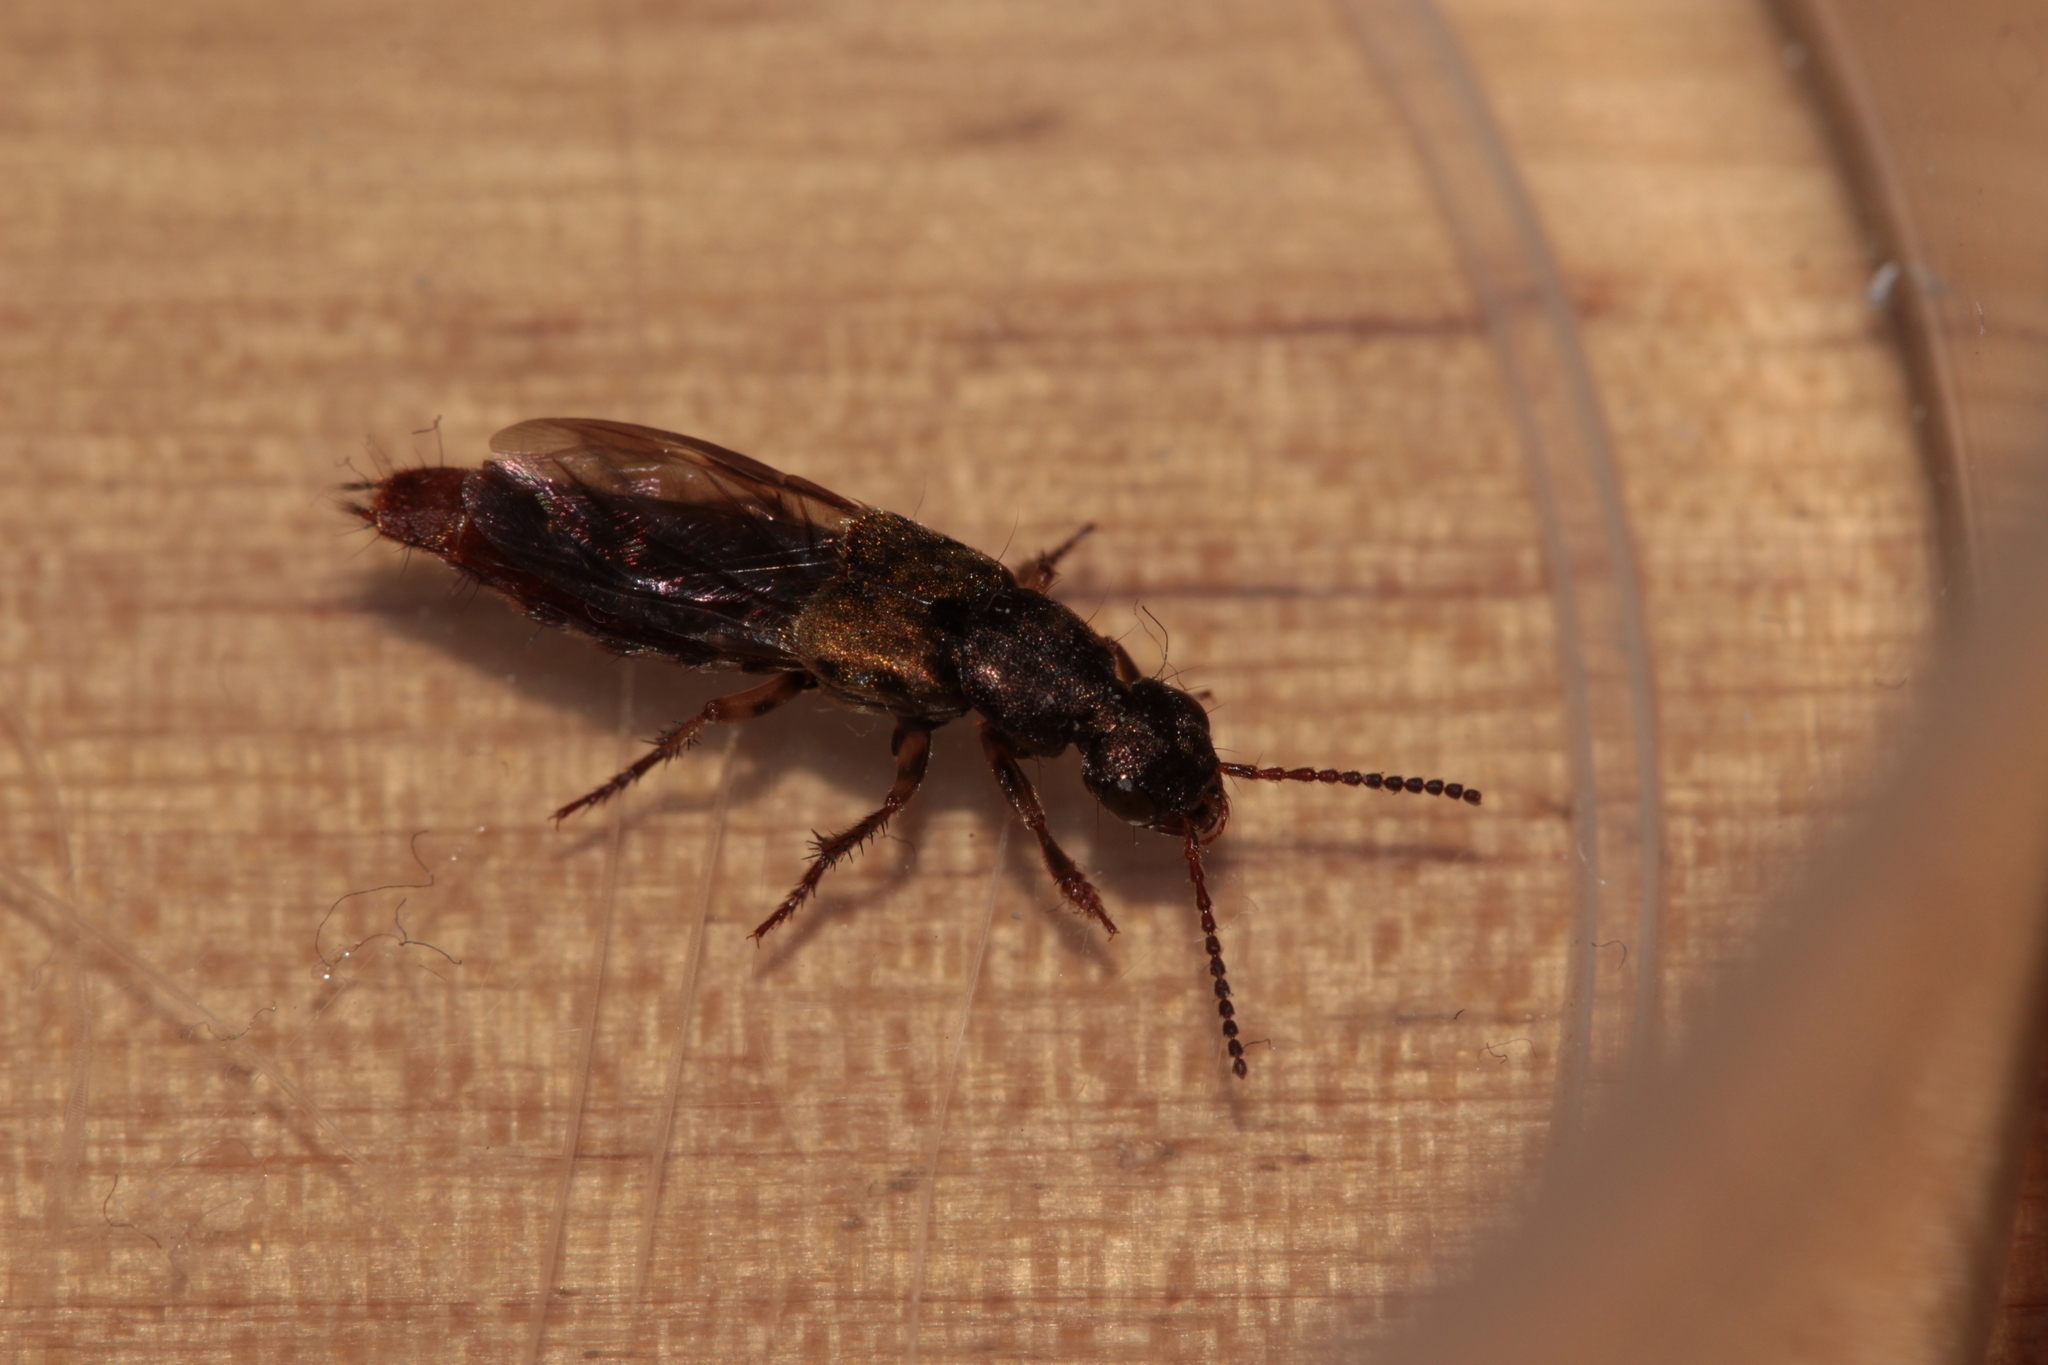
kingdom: Animalia
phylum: Arthropoda
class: Insecta
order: Coleoptera
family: Staphylinidae
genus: Abemus
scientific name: Abemus chloropterus
